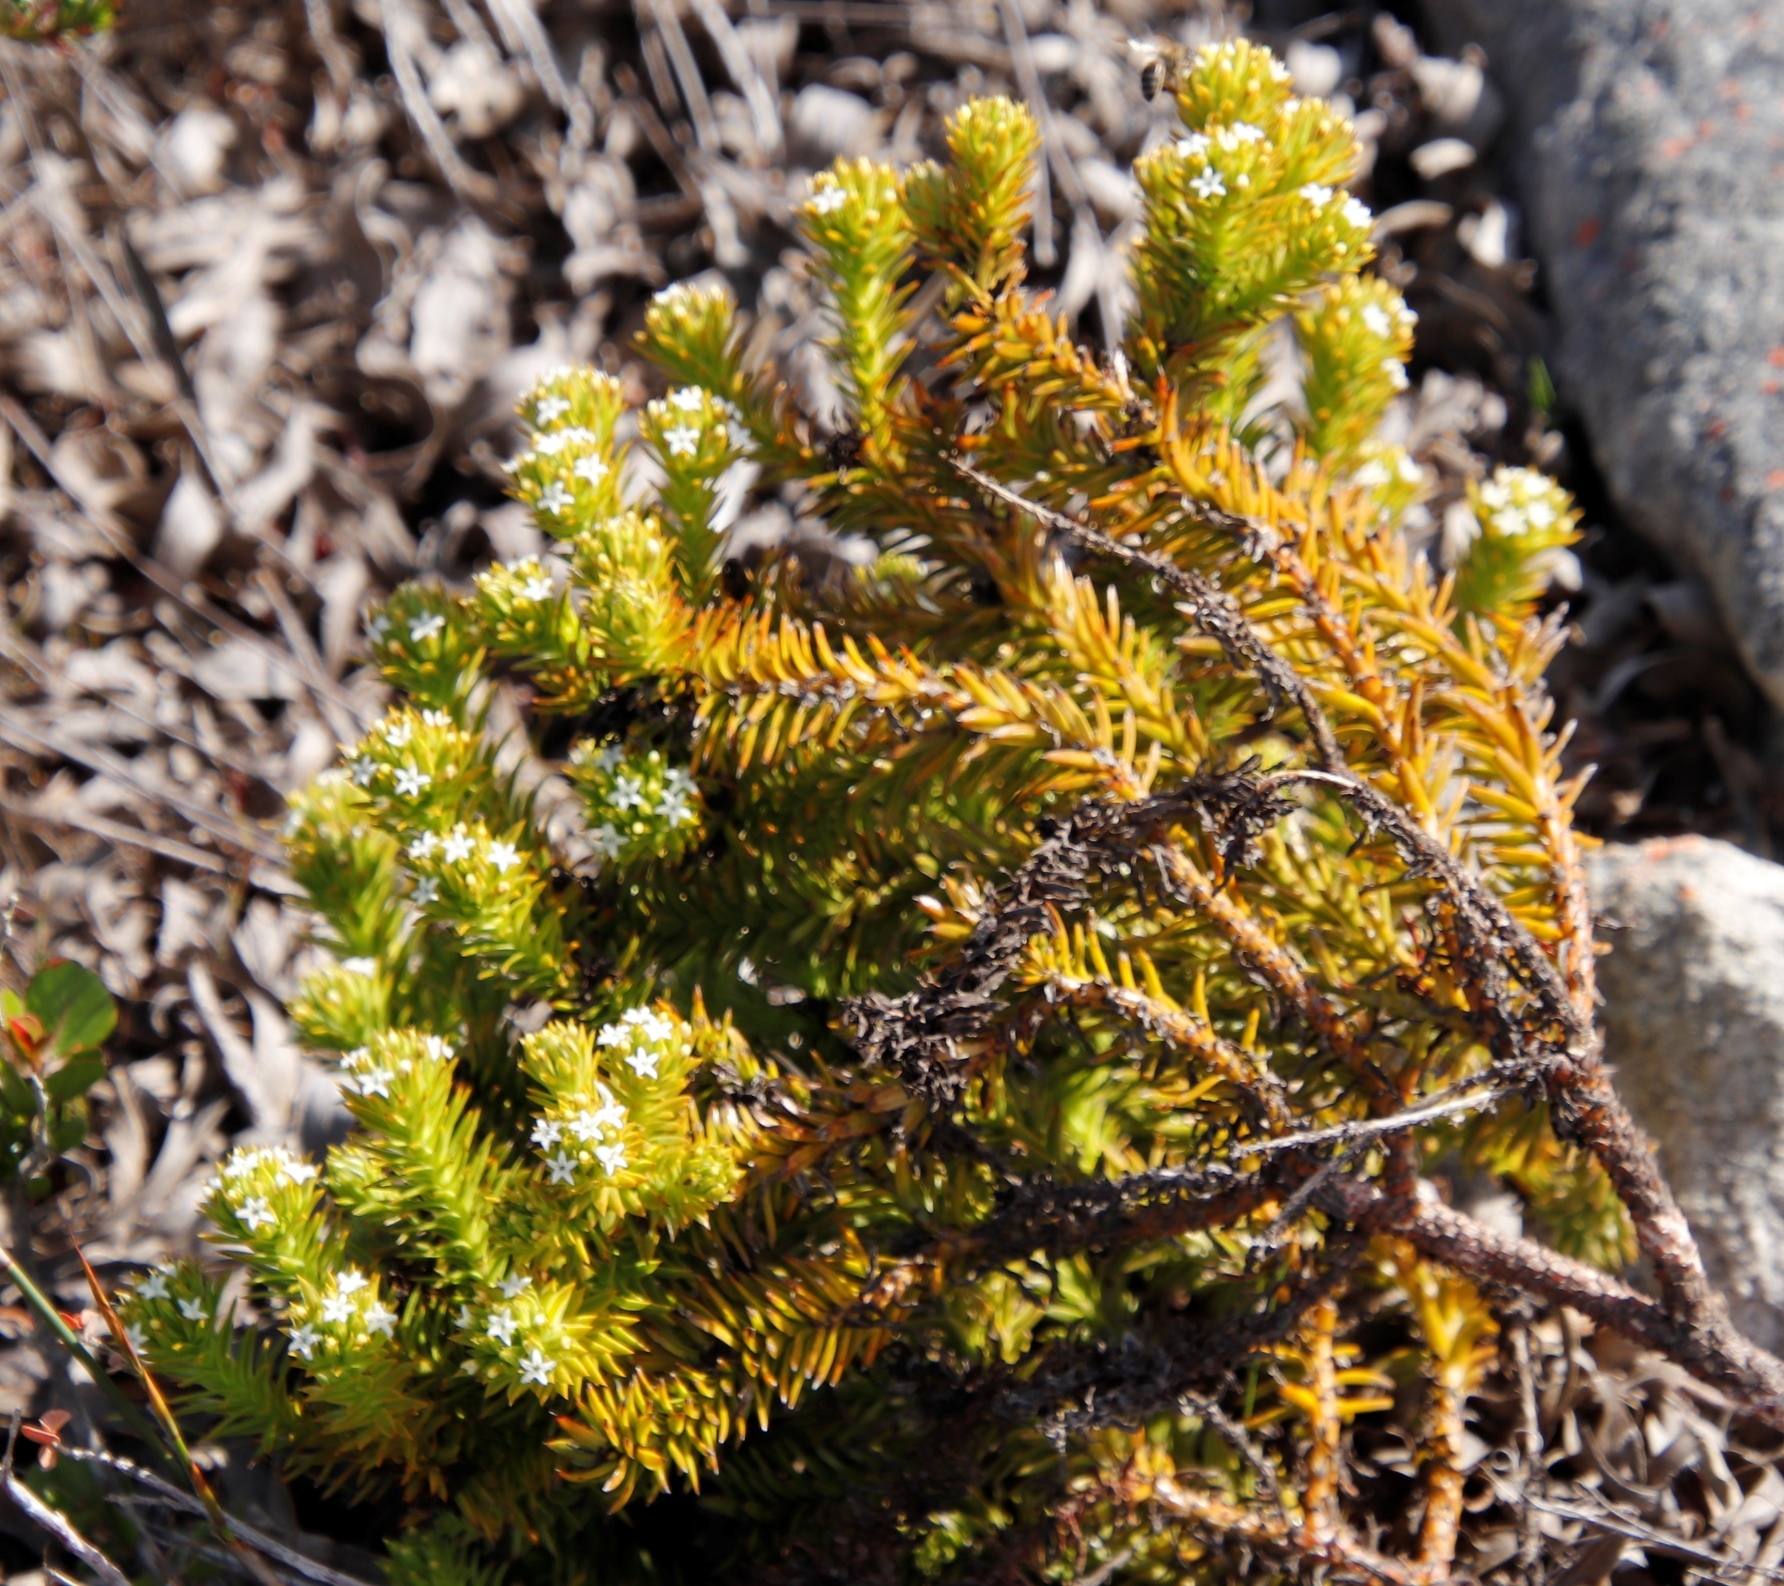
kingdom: Plantae
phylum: Tracheophyta
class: Magnoliopsida
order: Santalales
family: Thesiaceae
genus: Thesium
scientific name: Thesium viridifolium
